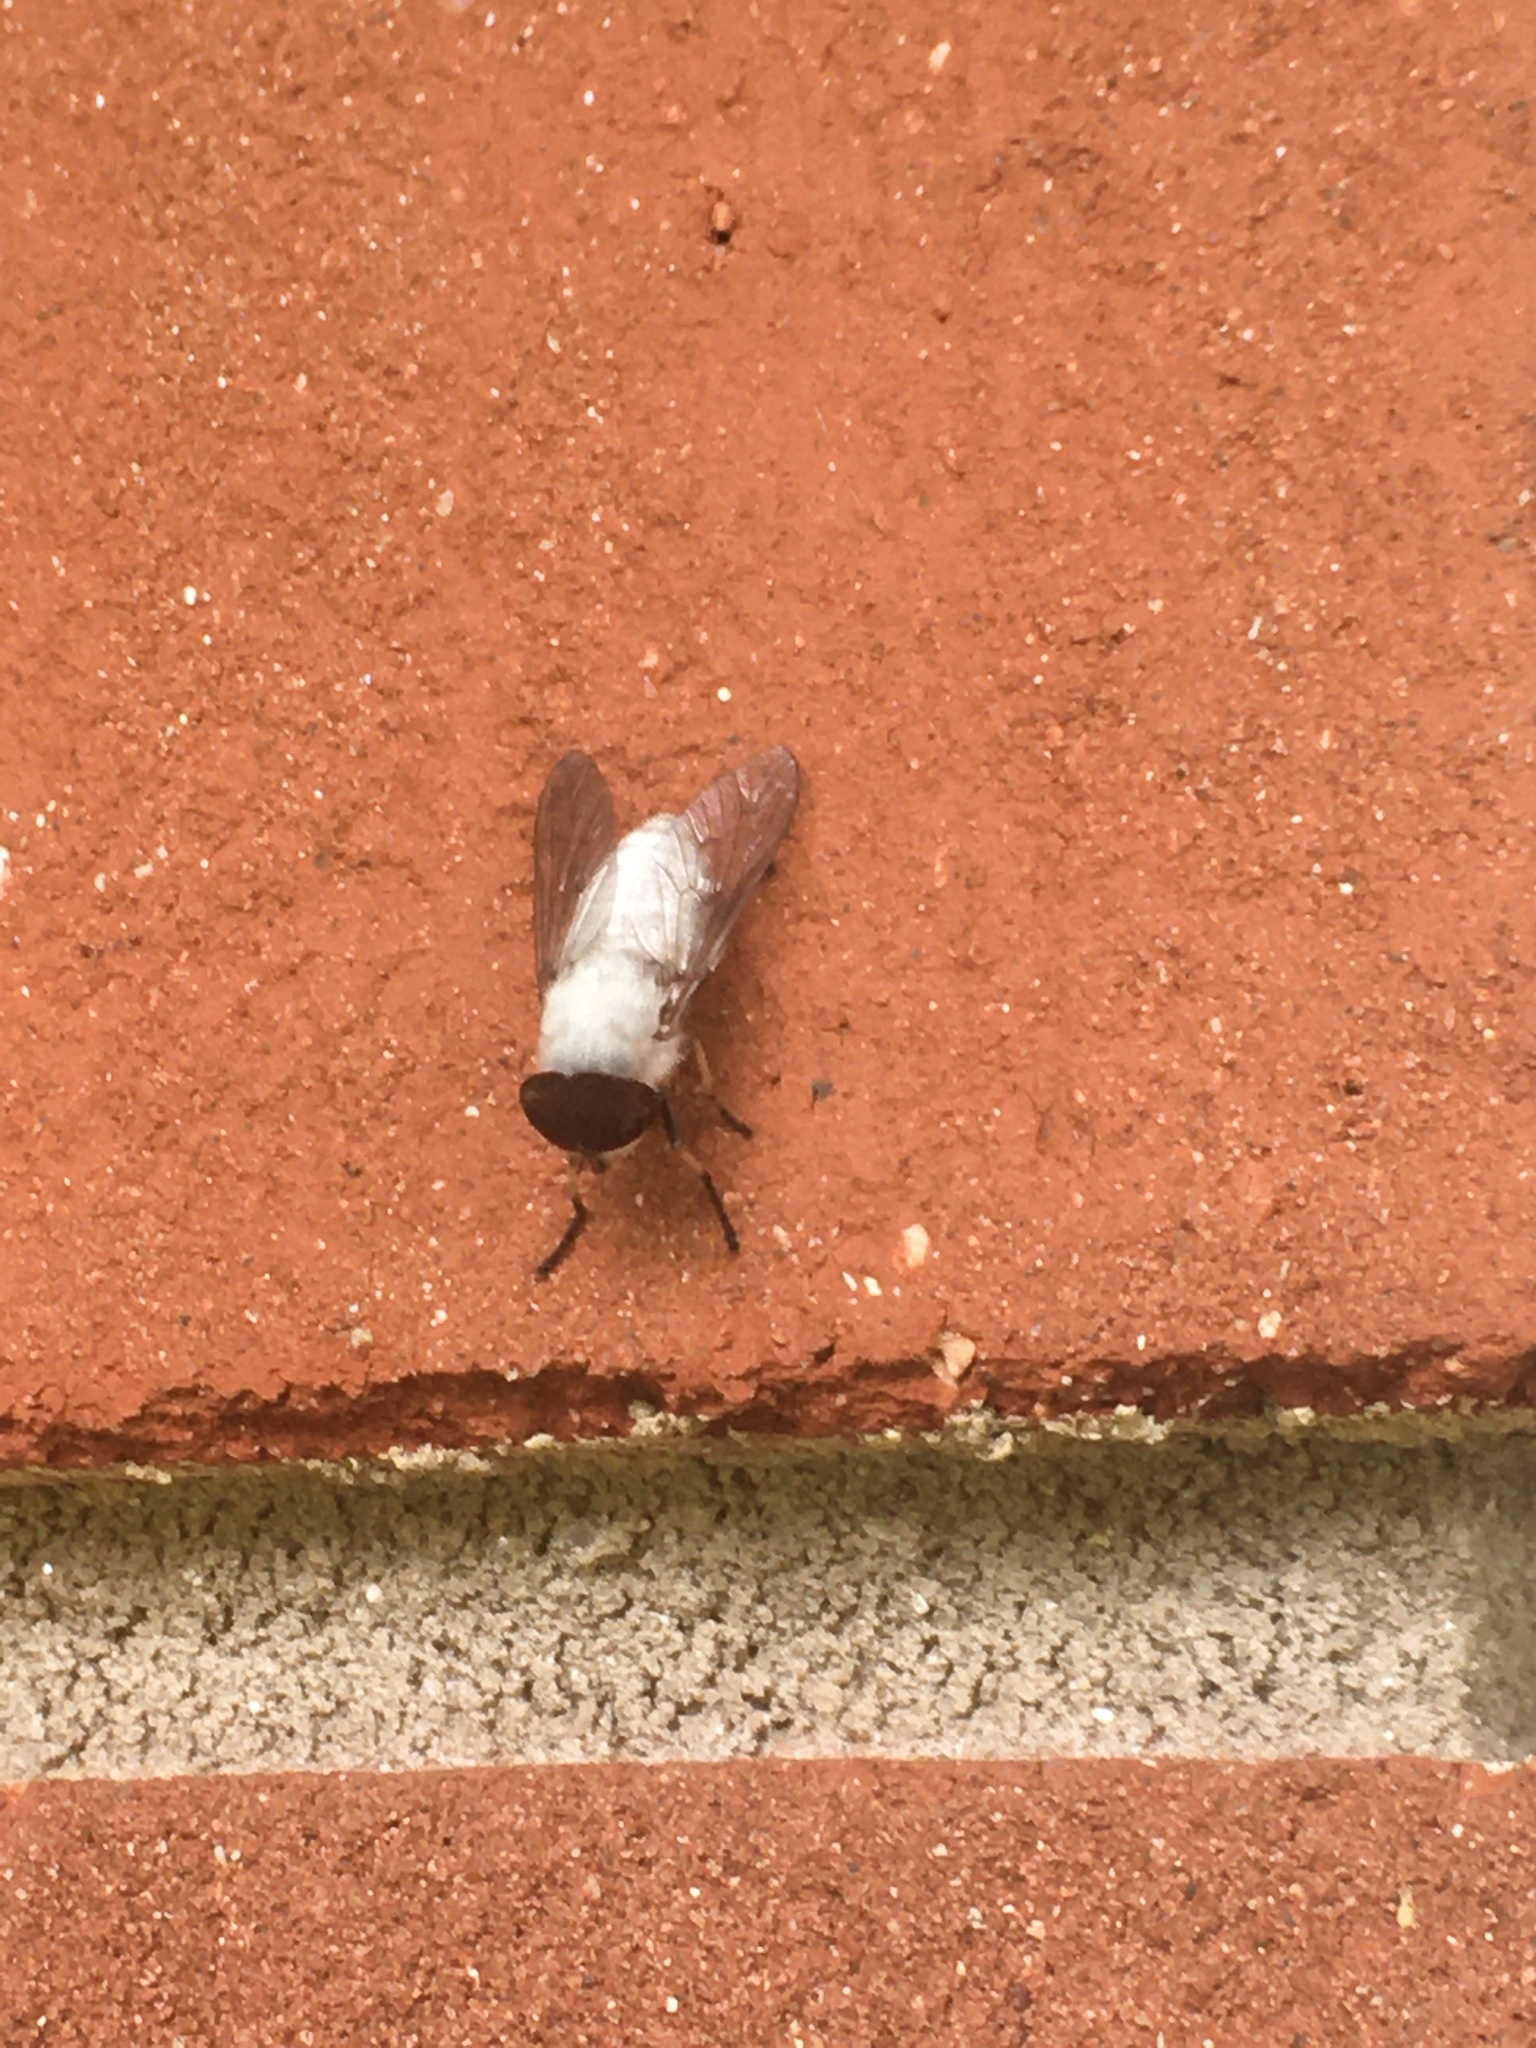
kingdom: Animalia
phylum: Arthropoda
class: Insecta
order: Diptera
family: Tabanidae
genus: Leucotabanus
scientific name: Leucotabanus annulatus
